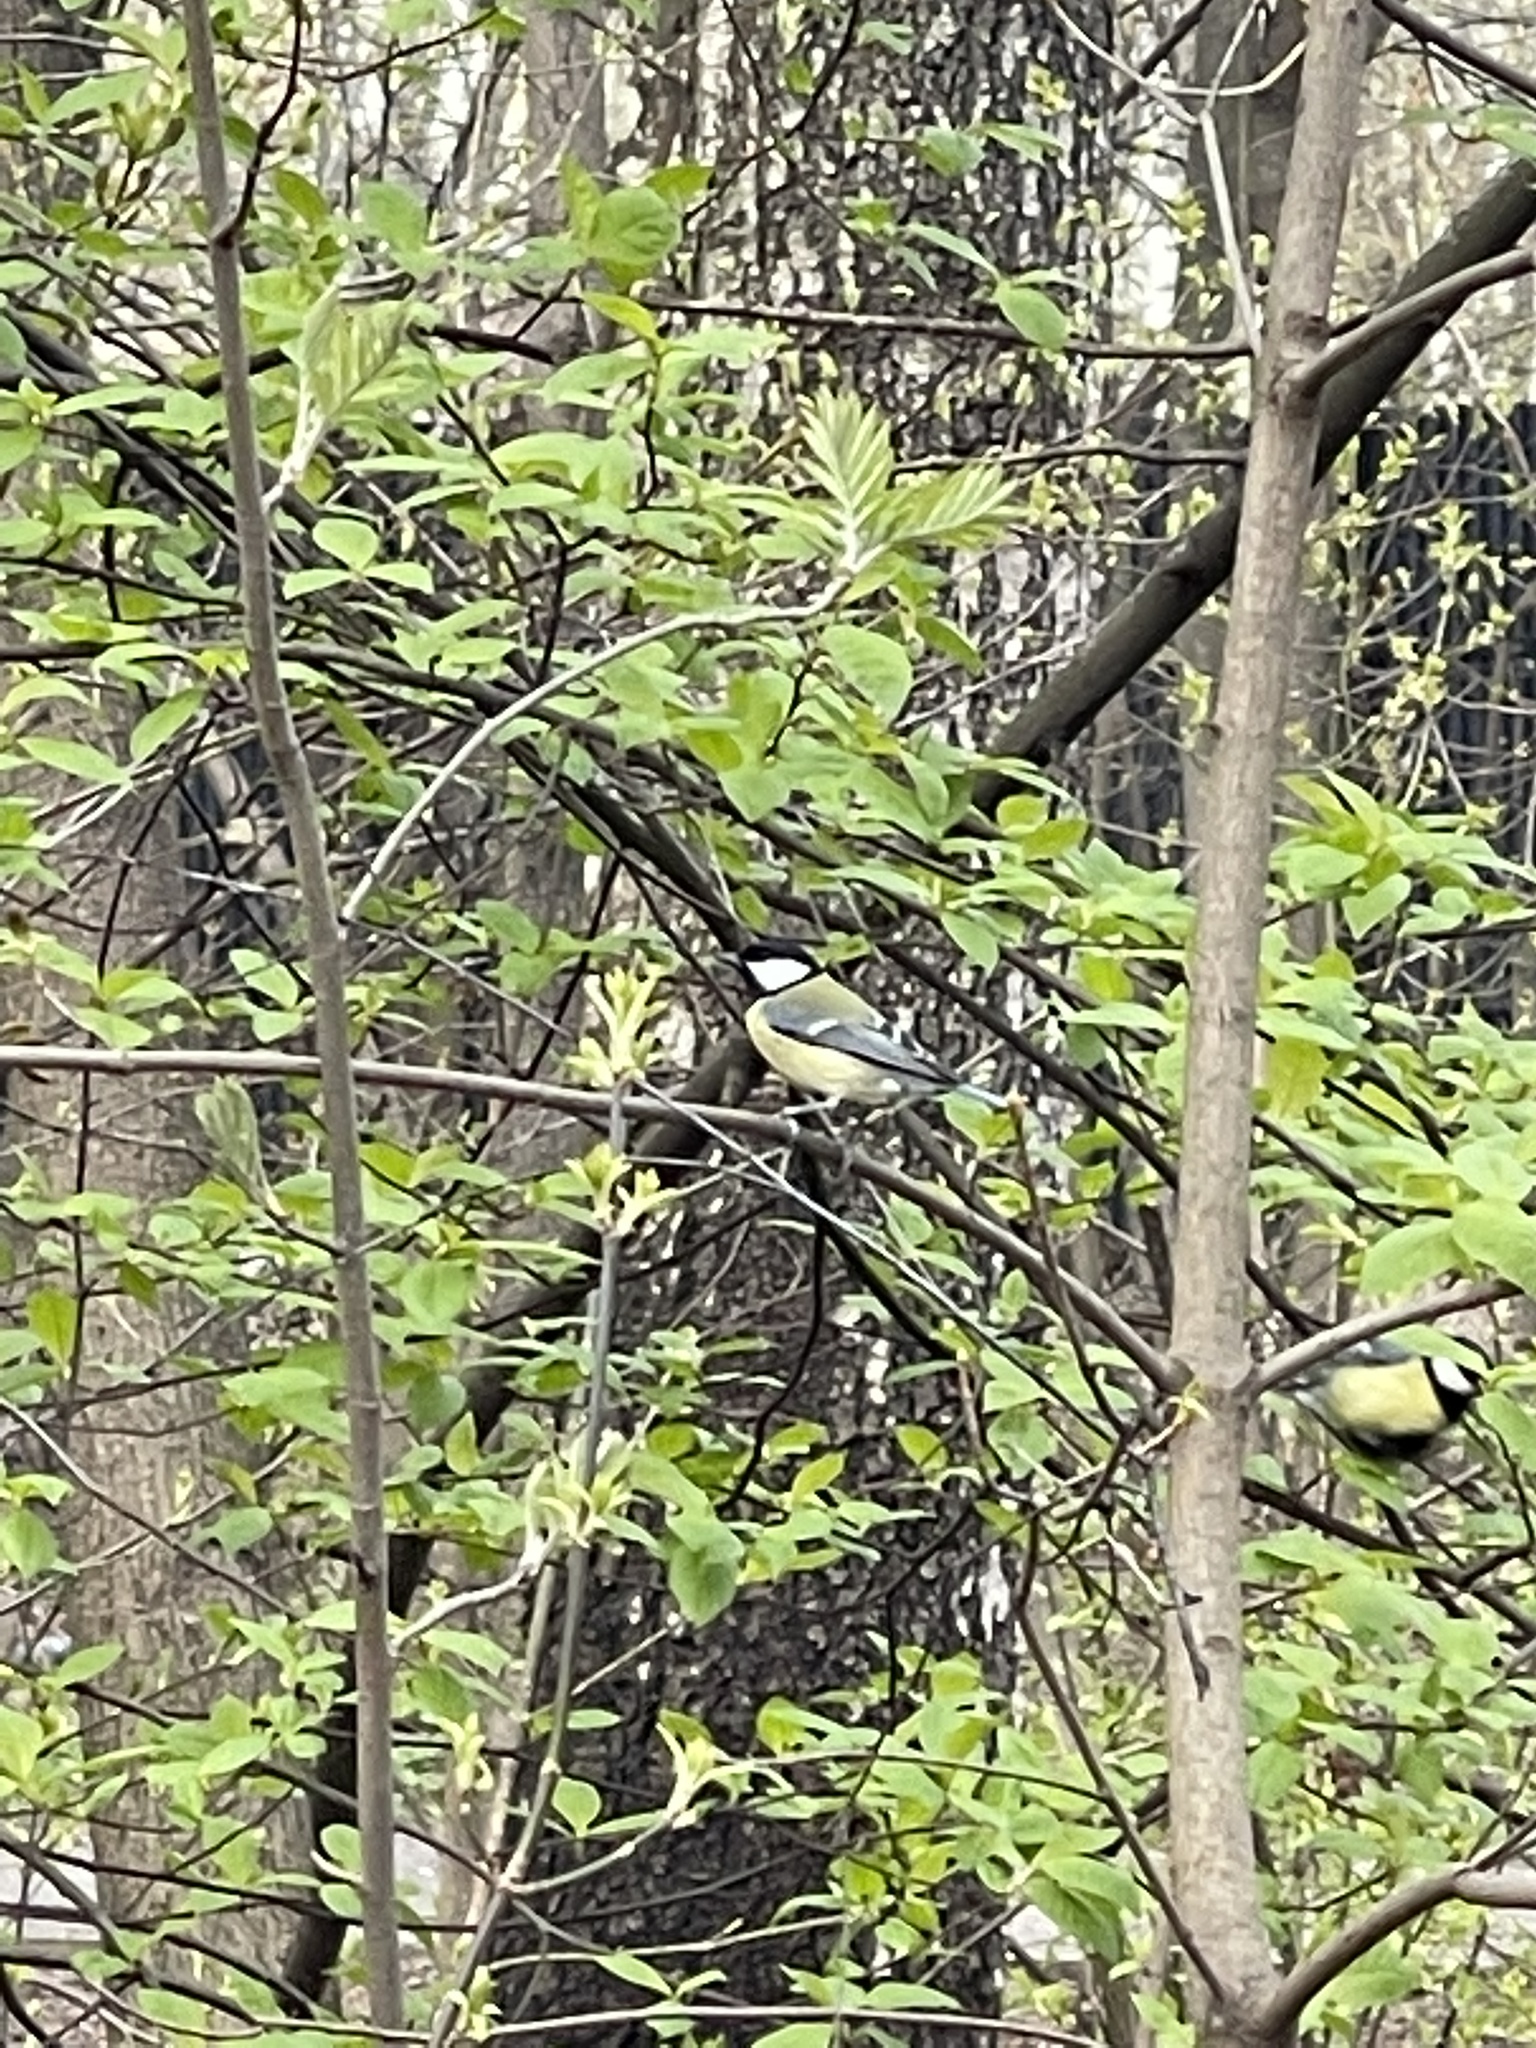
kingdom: Animalia
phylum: Chordata
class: Aves
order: Passeriformes
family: Paridae
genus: Parus
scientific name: Parus major
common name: Great tit
